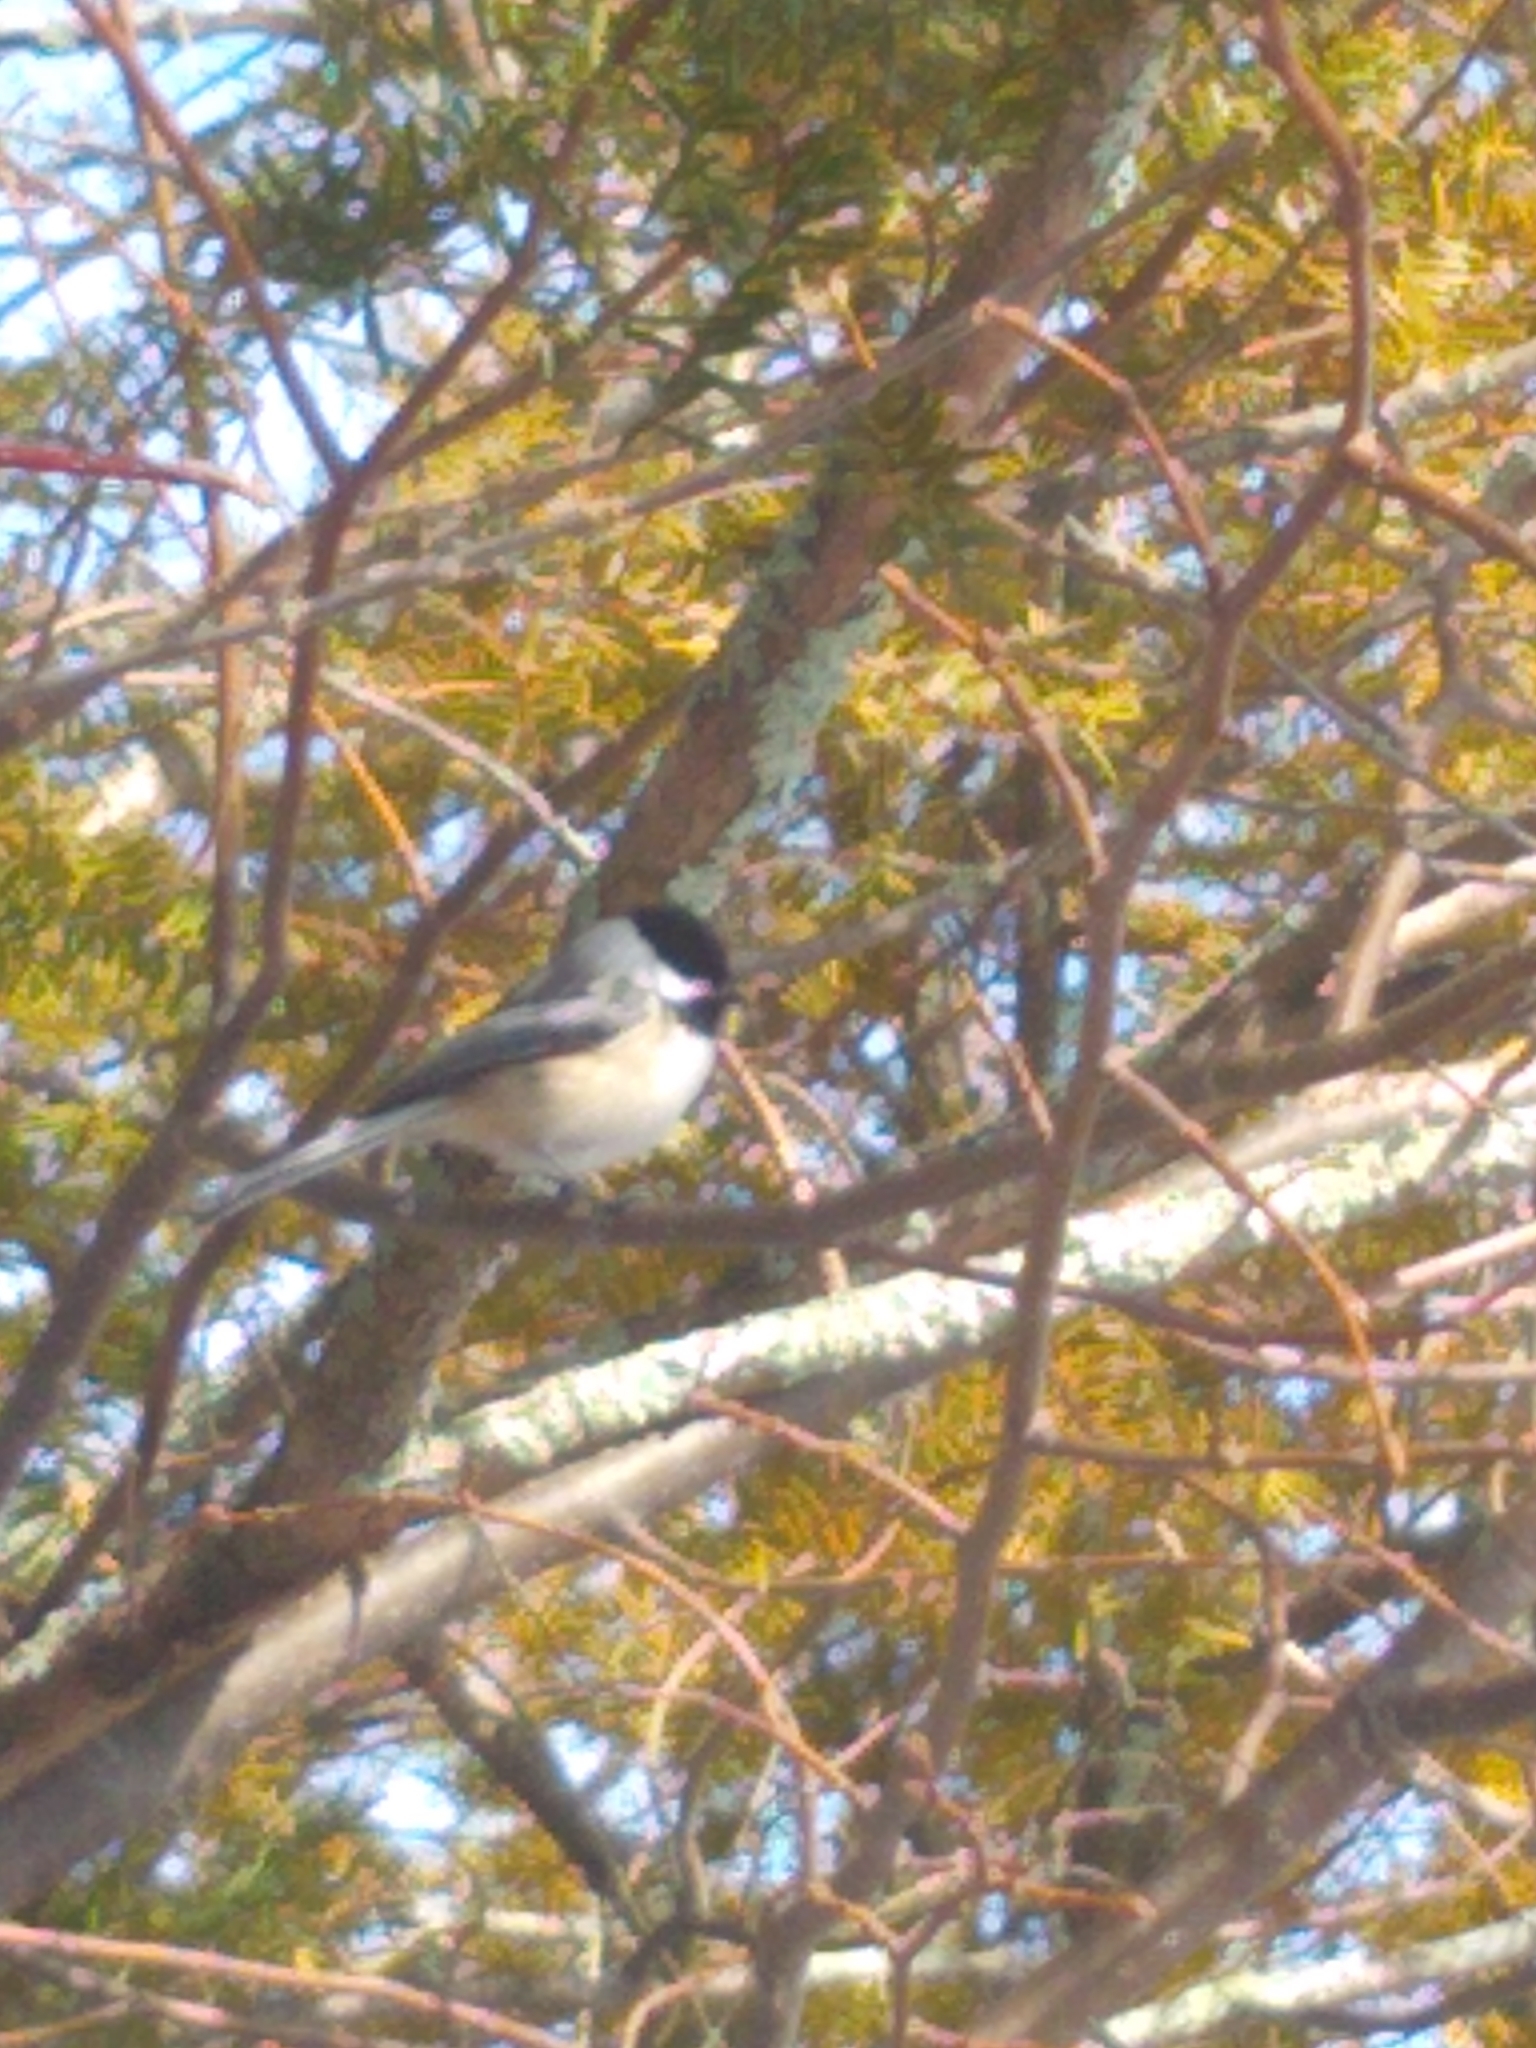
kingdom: Animalia
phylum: Chordata
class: Aves
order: Passeriformes
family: Paridae
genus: Poecile
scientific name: Poecile atricapillus
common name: Black-capped chickadee
